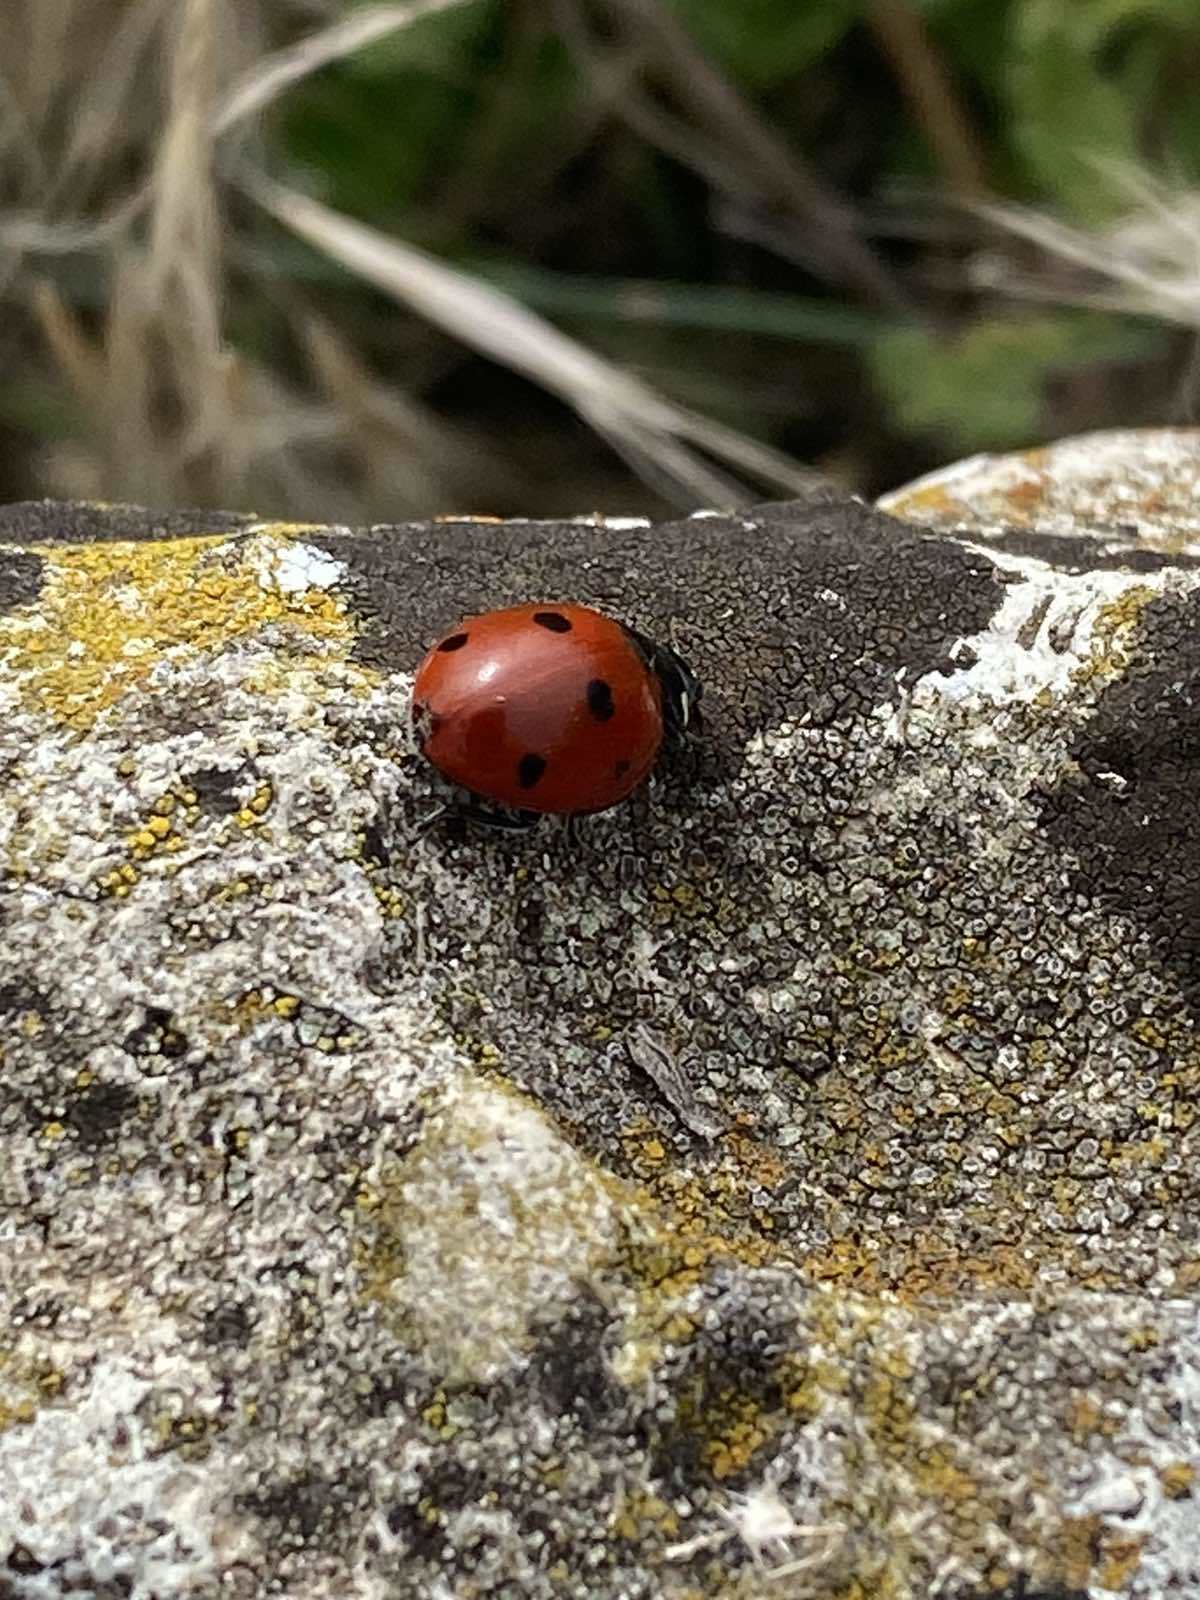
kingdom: Animalia
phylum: Arthropoda
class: Insecta
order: Coleoptera
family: Coccinellidae
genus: Coccinella
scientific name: Coccinella septempunctata
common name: Sevenspotted lady beetle
